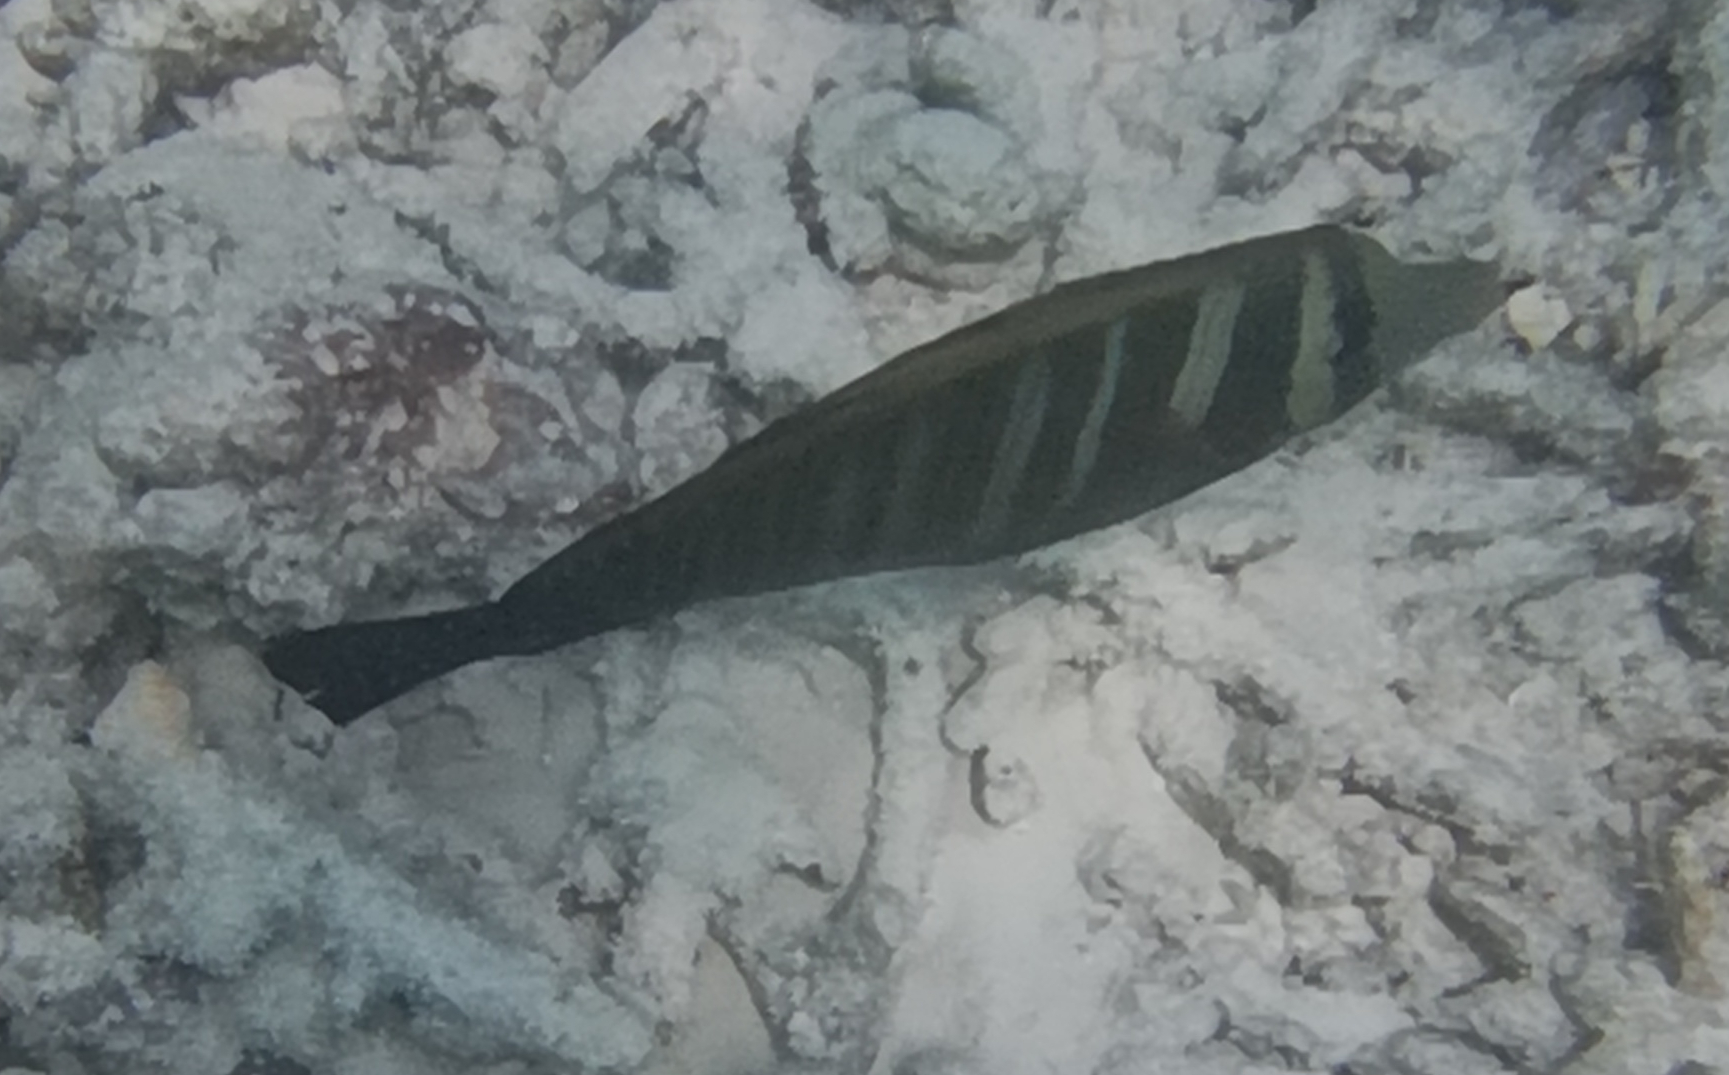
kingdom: Animalia
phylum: Chordata
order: Perciformes
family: Acanthuridae
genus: Zebrasoma
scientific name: Zebrasoma desjardinii
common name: Desjardin's sailfin tang
